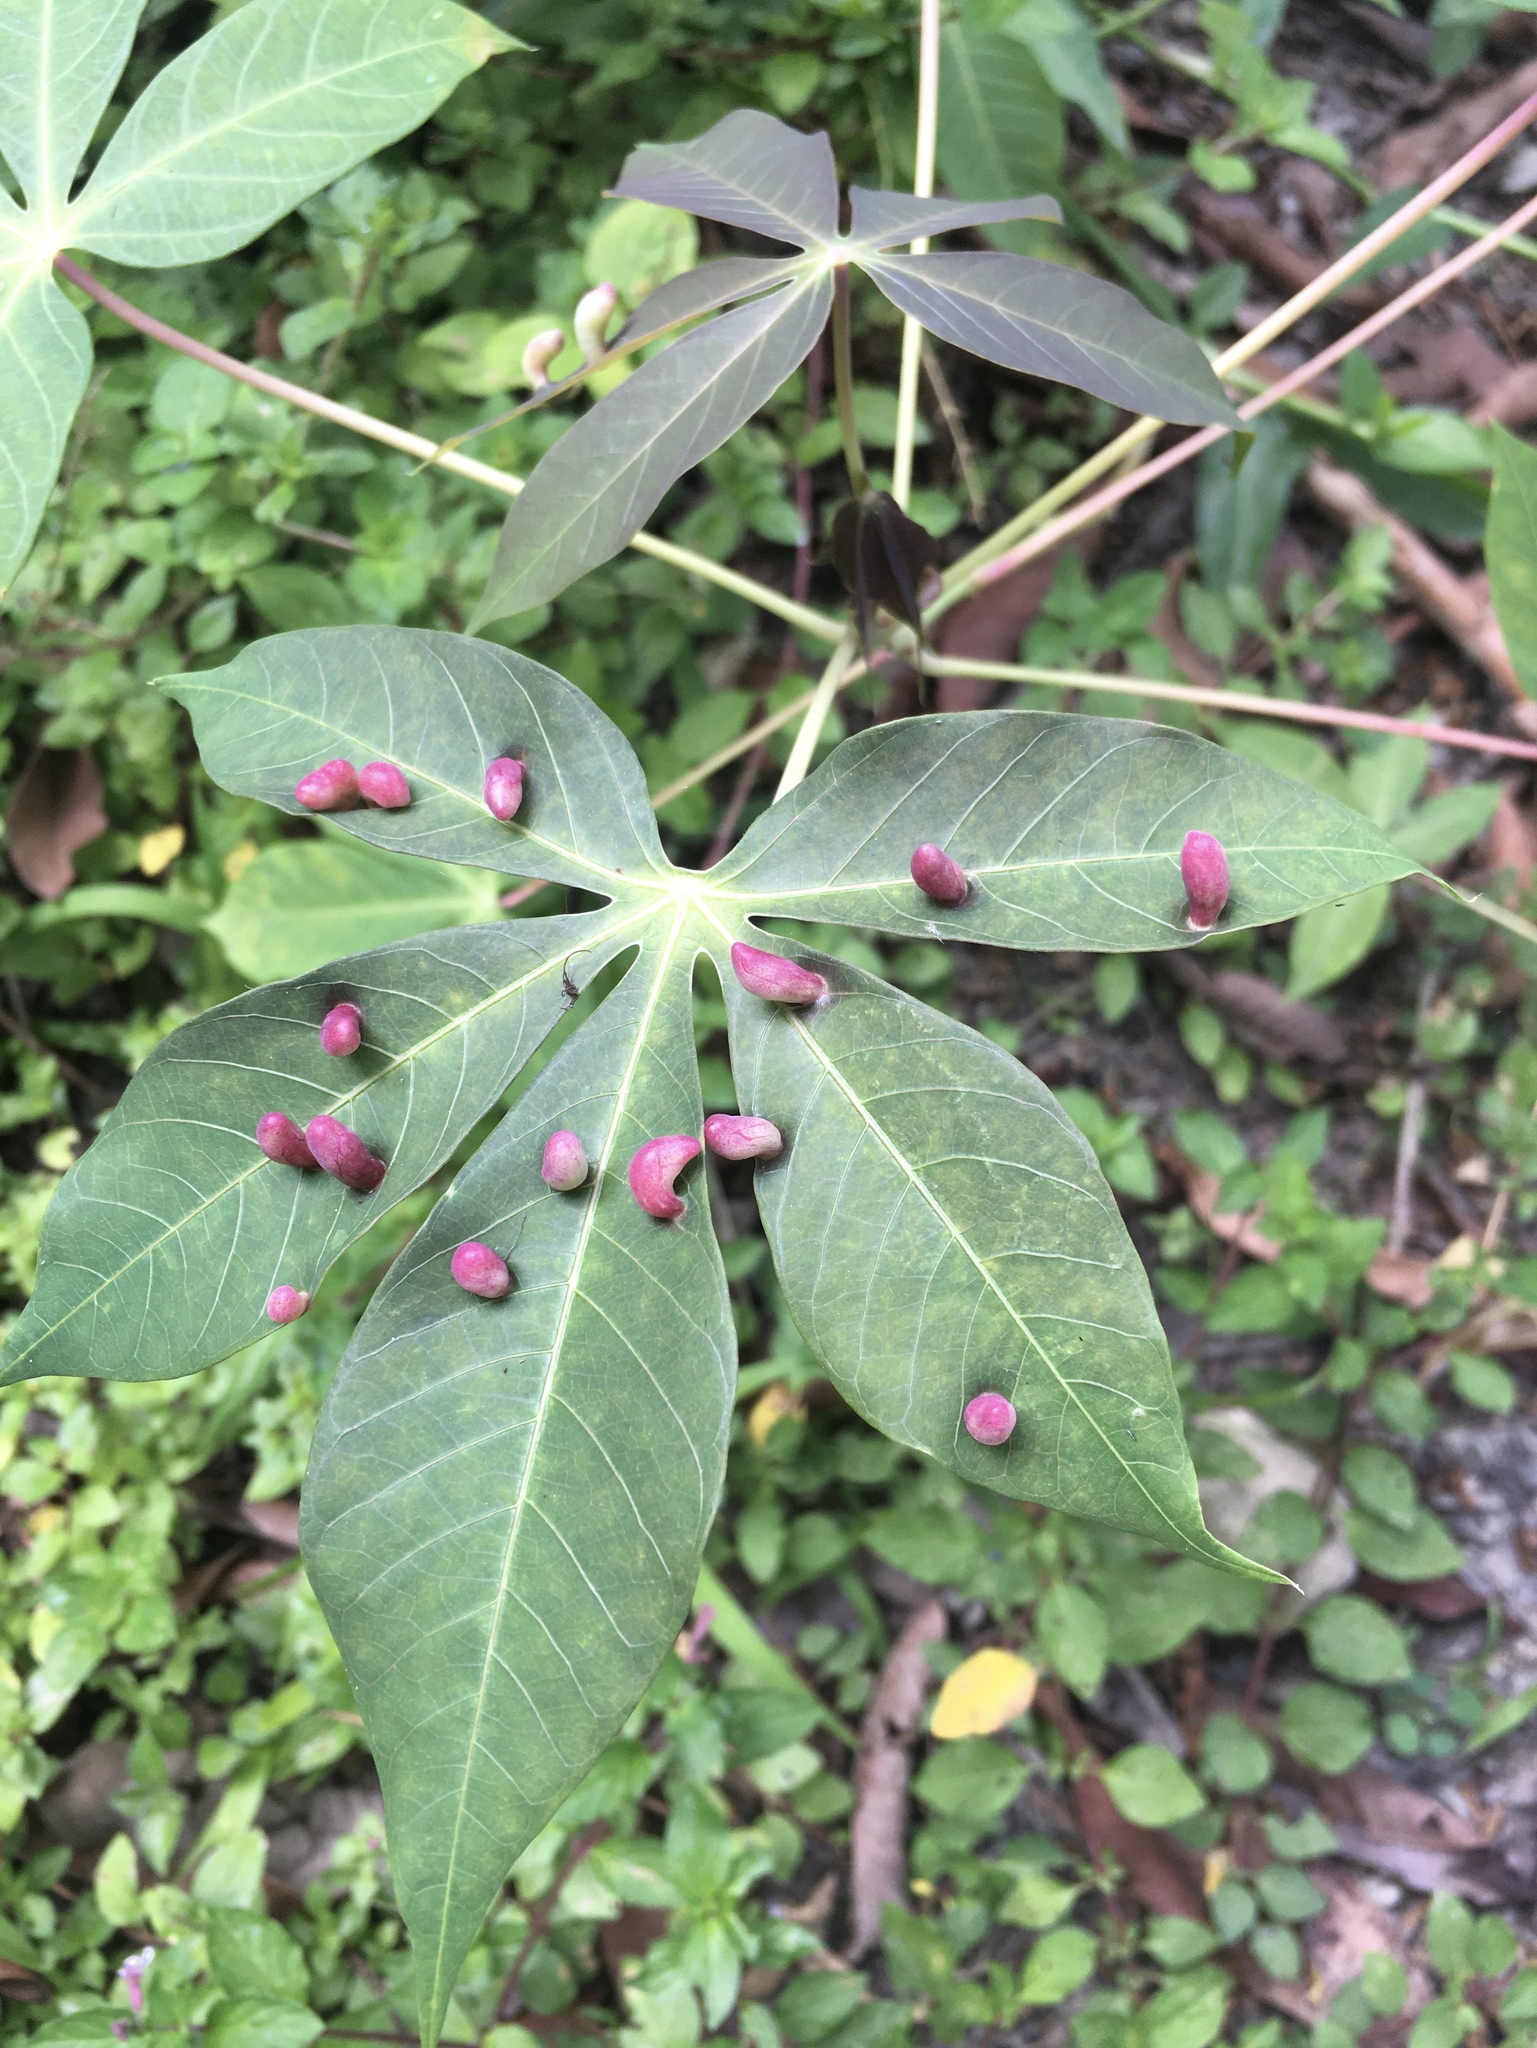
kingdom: Animalia
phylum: Arthropoda
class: Insecta
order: Diptera
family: Cecidomyiidae
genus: Iatrophobia
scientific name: Iatrophobia brasiliensis
